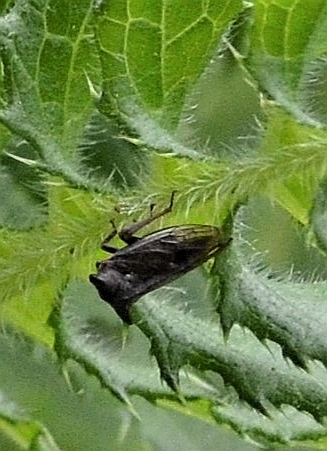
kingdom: Animalia
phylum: Arthropoda
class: Insecta
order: Hemiptera
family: Membracidae
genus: Centrotus
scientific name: Centrotus cornuta
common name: Treehopper
